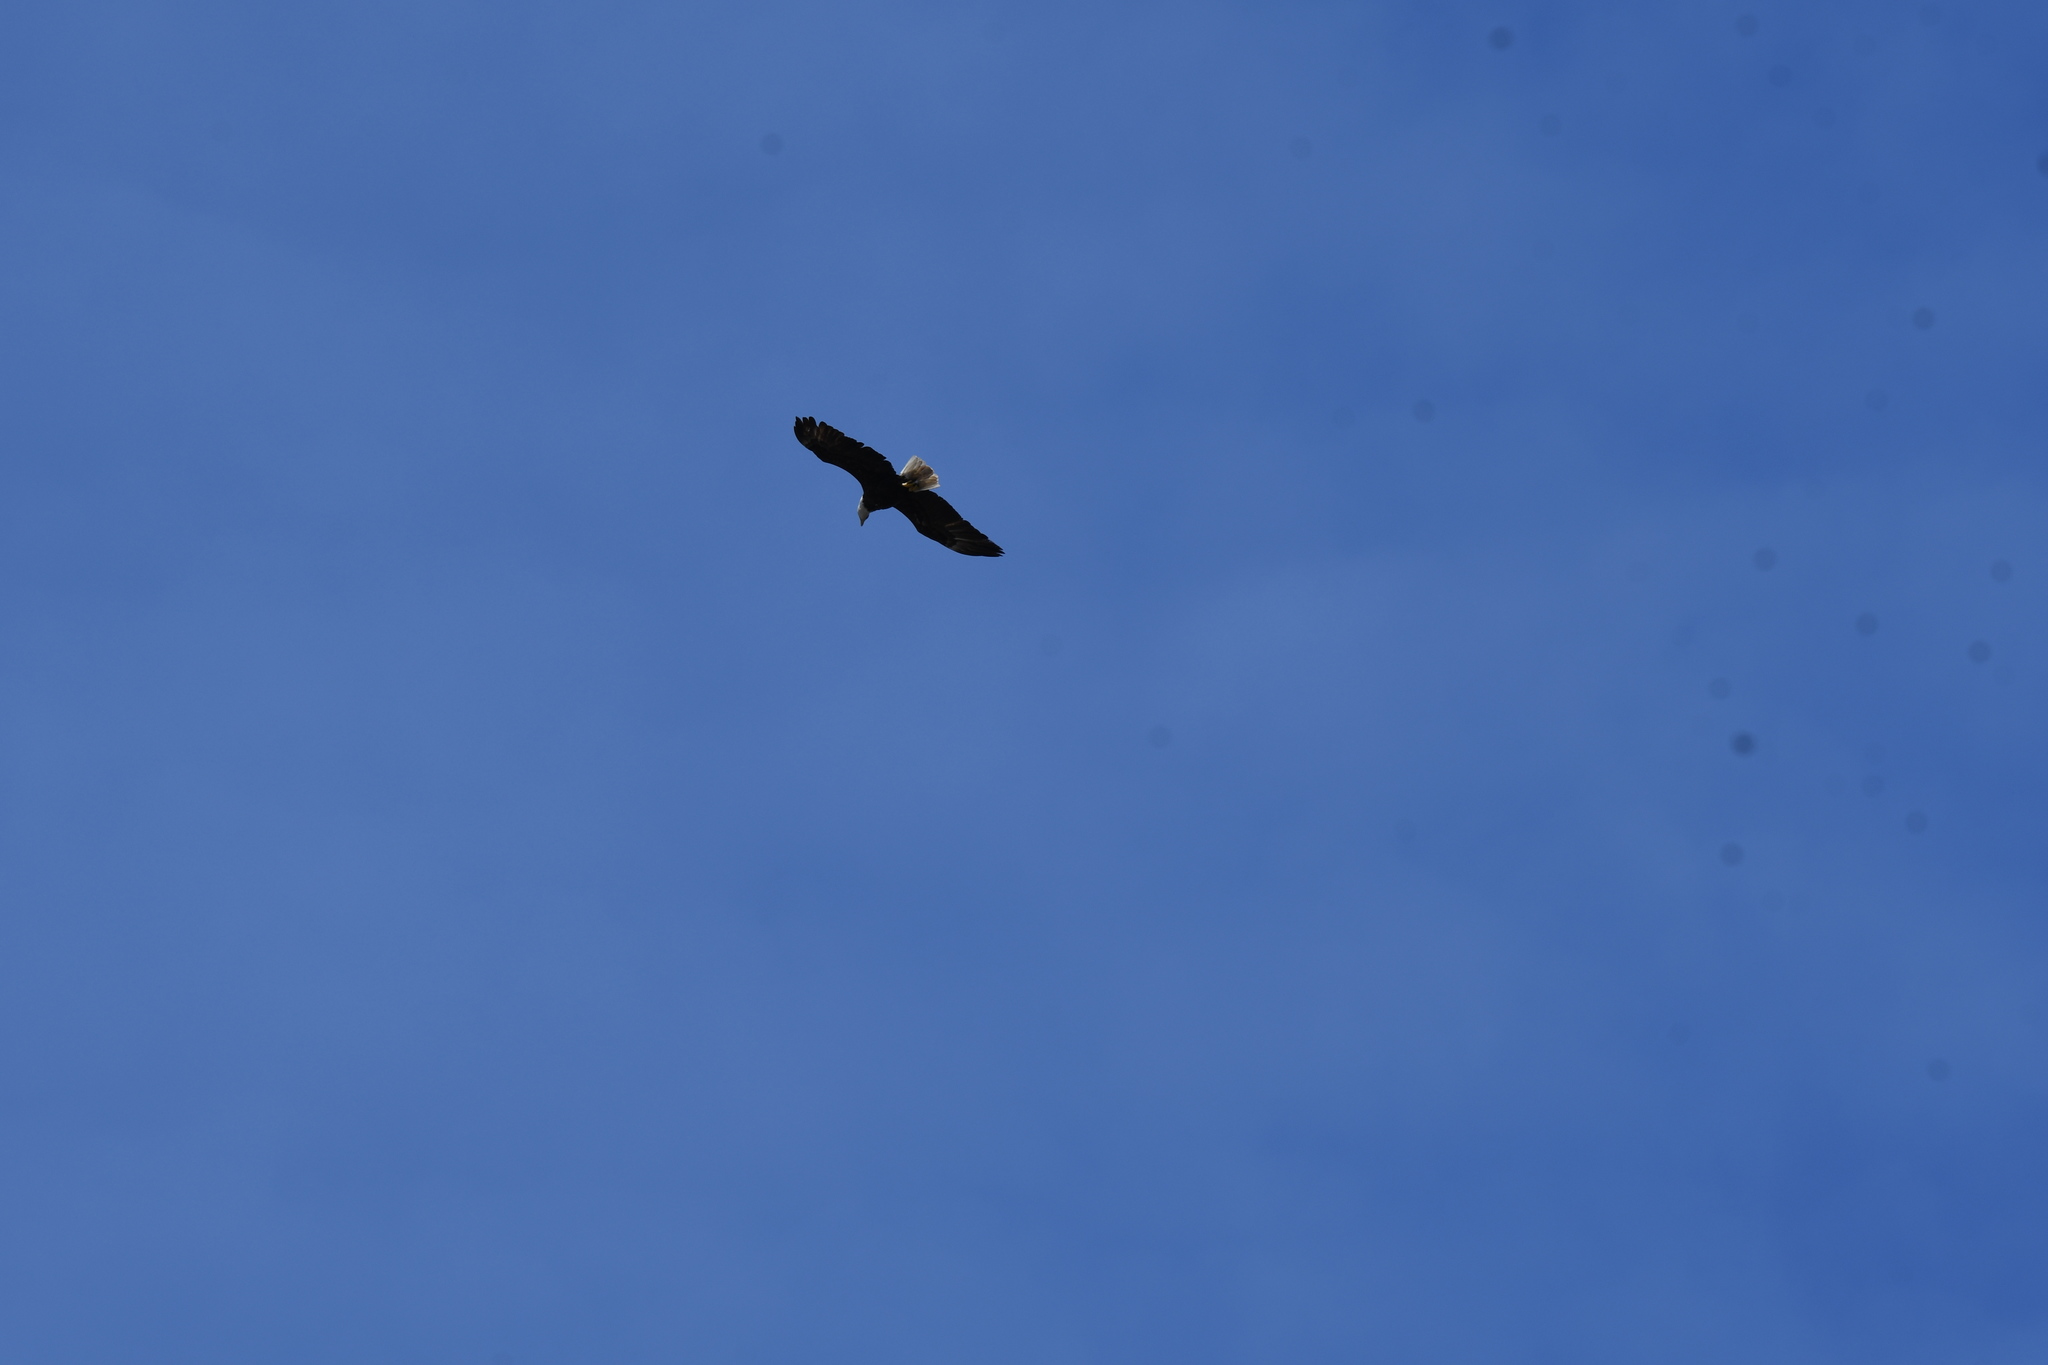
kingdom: Animalia
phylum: Chordata
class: Aves
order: Accipitriformes
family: Accipitridae
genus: Haliaeetus
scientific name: Haliaeetus leucocephalus
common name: Bald eagle
